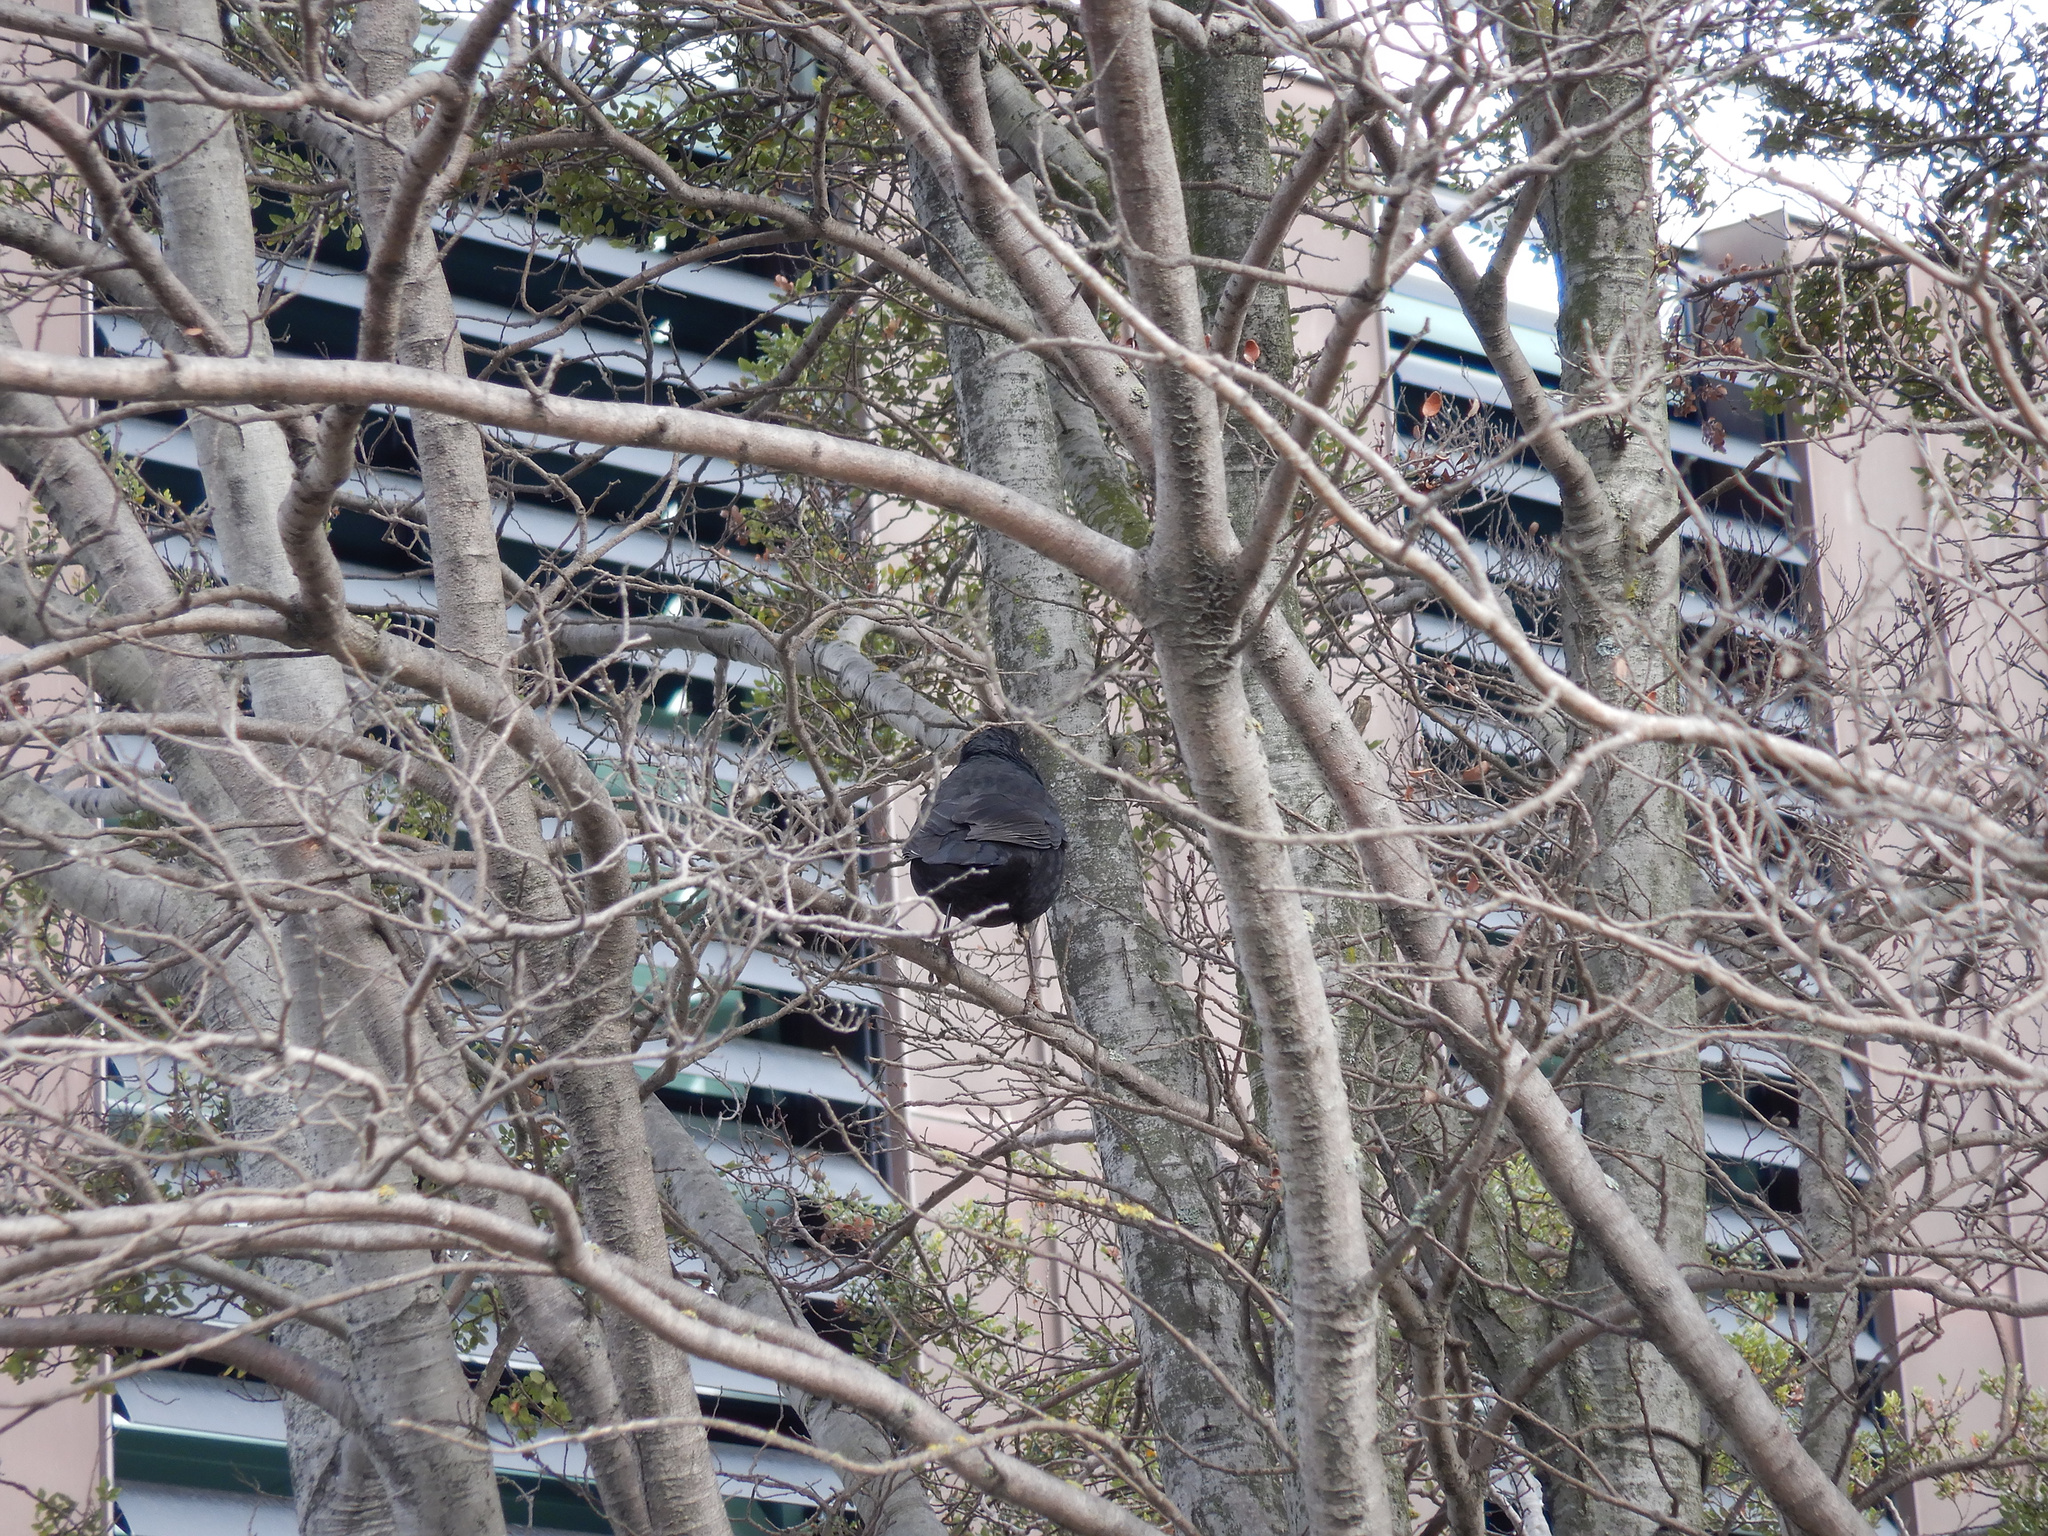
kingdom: Animalia
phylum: Chordata
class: Aves
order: Passeriformes
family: Turdidae
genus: Turdus
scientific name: Turdus merula
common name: Common blackbird
